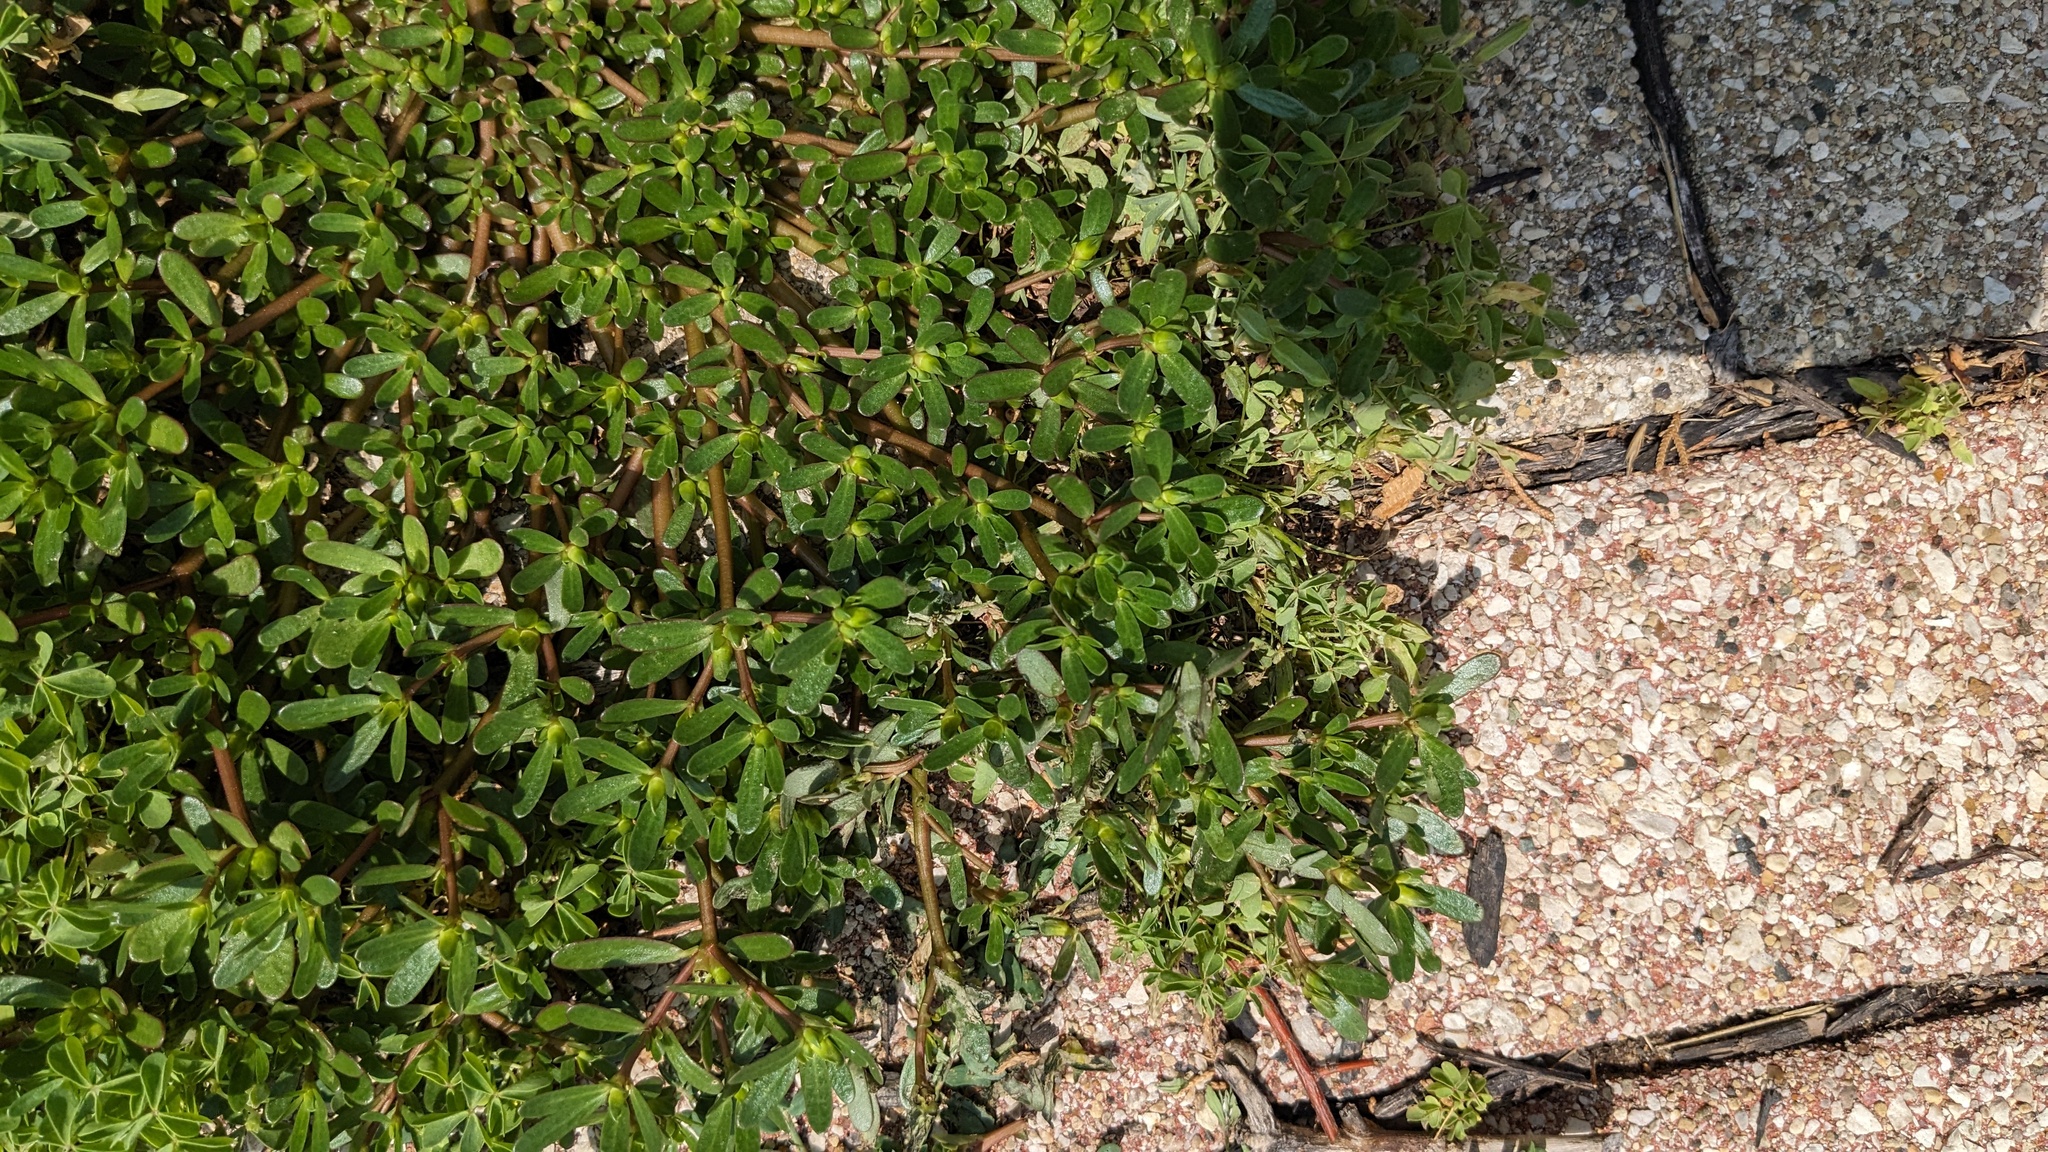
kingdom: Plantae
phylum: Tracheophyta
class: Magnoliopsida
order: Caryophyllales
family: Portulacaceae
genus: Portulaca
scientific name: Portulaca oleracea
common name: Common purslane
